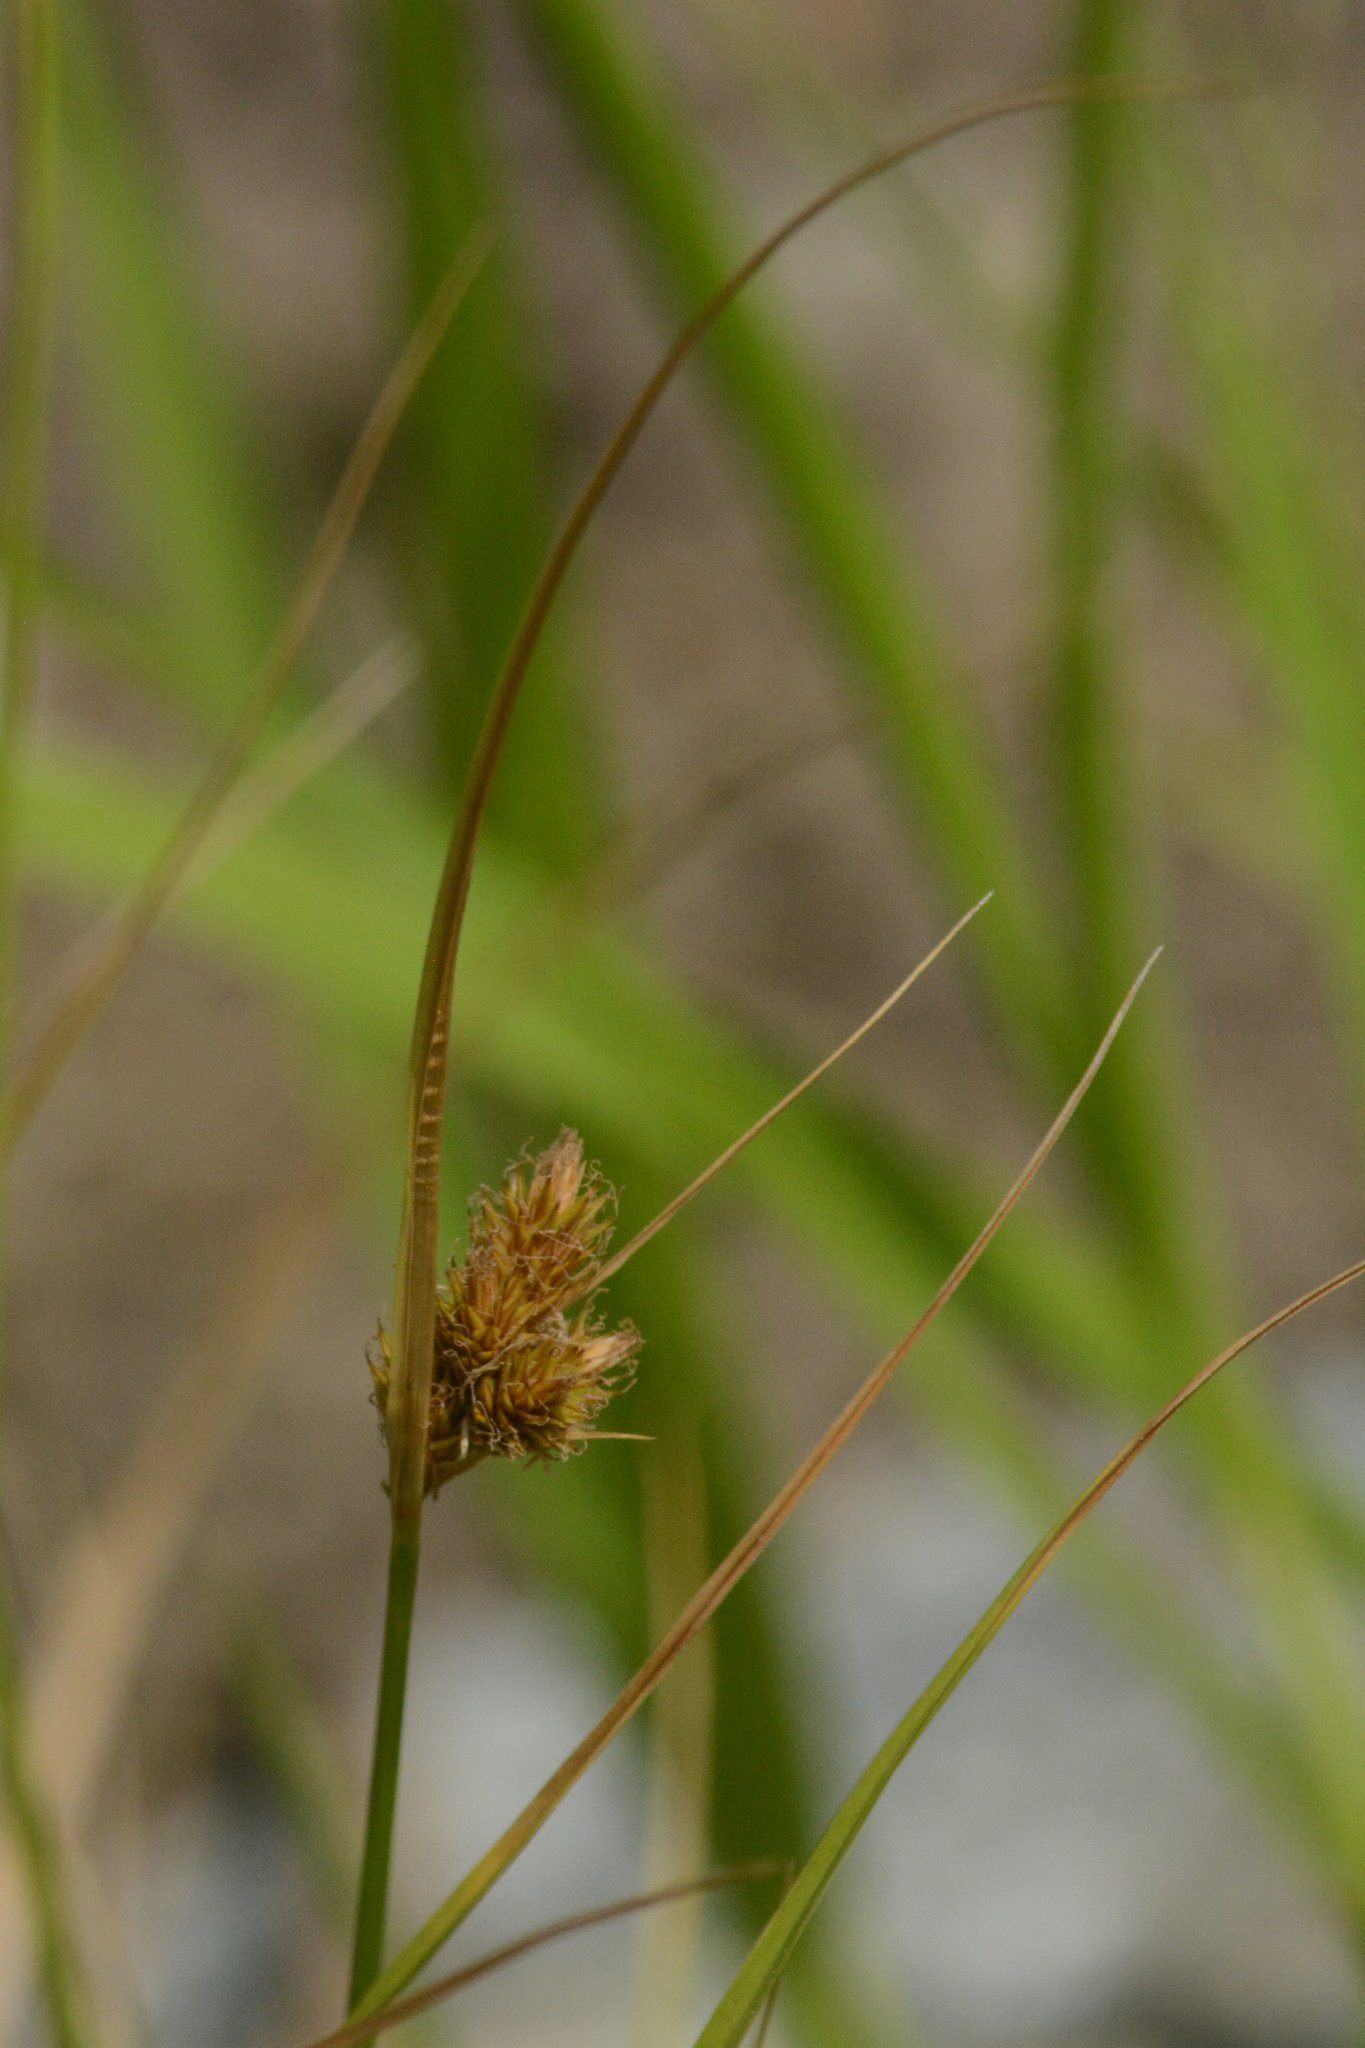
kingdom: Plantae
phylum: Tracheophyta
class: Liliopsida
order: Poales
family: Cyperaceae
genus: Carex
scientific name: Carex unilateralis
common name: Lateral sedge
